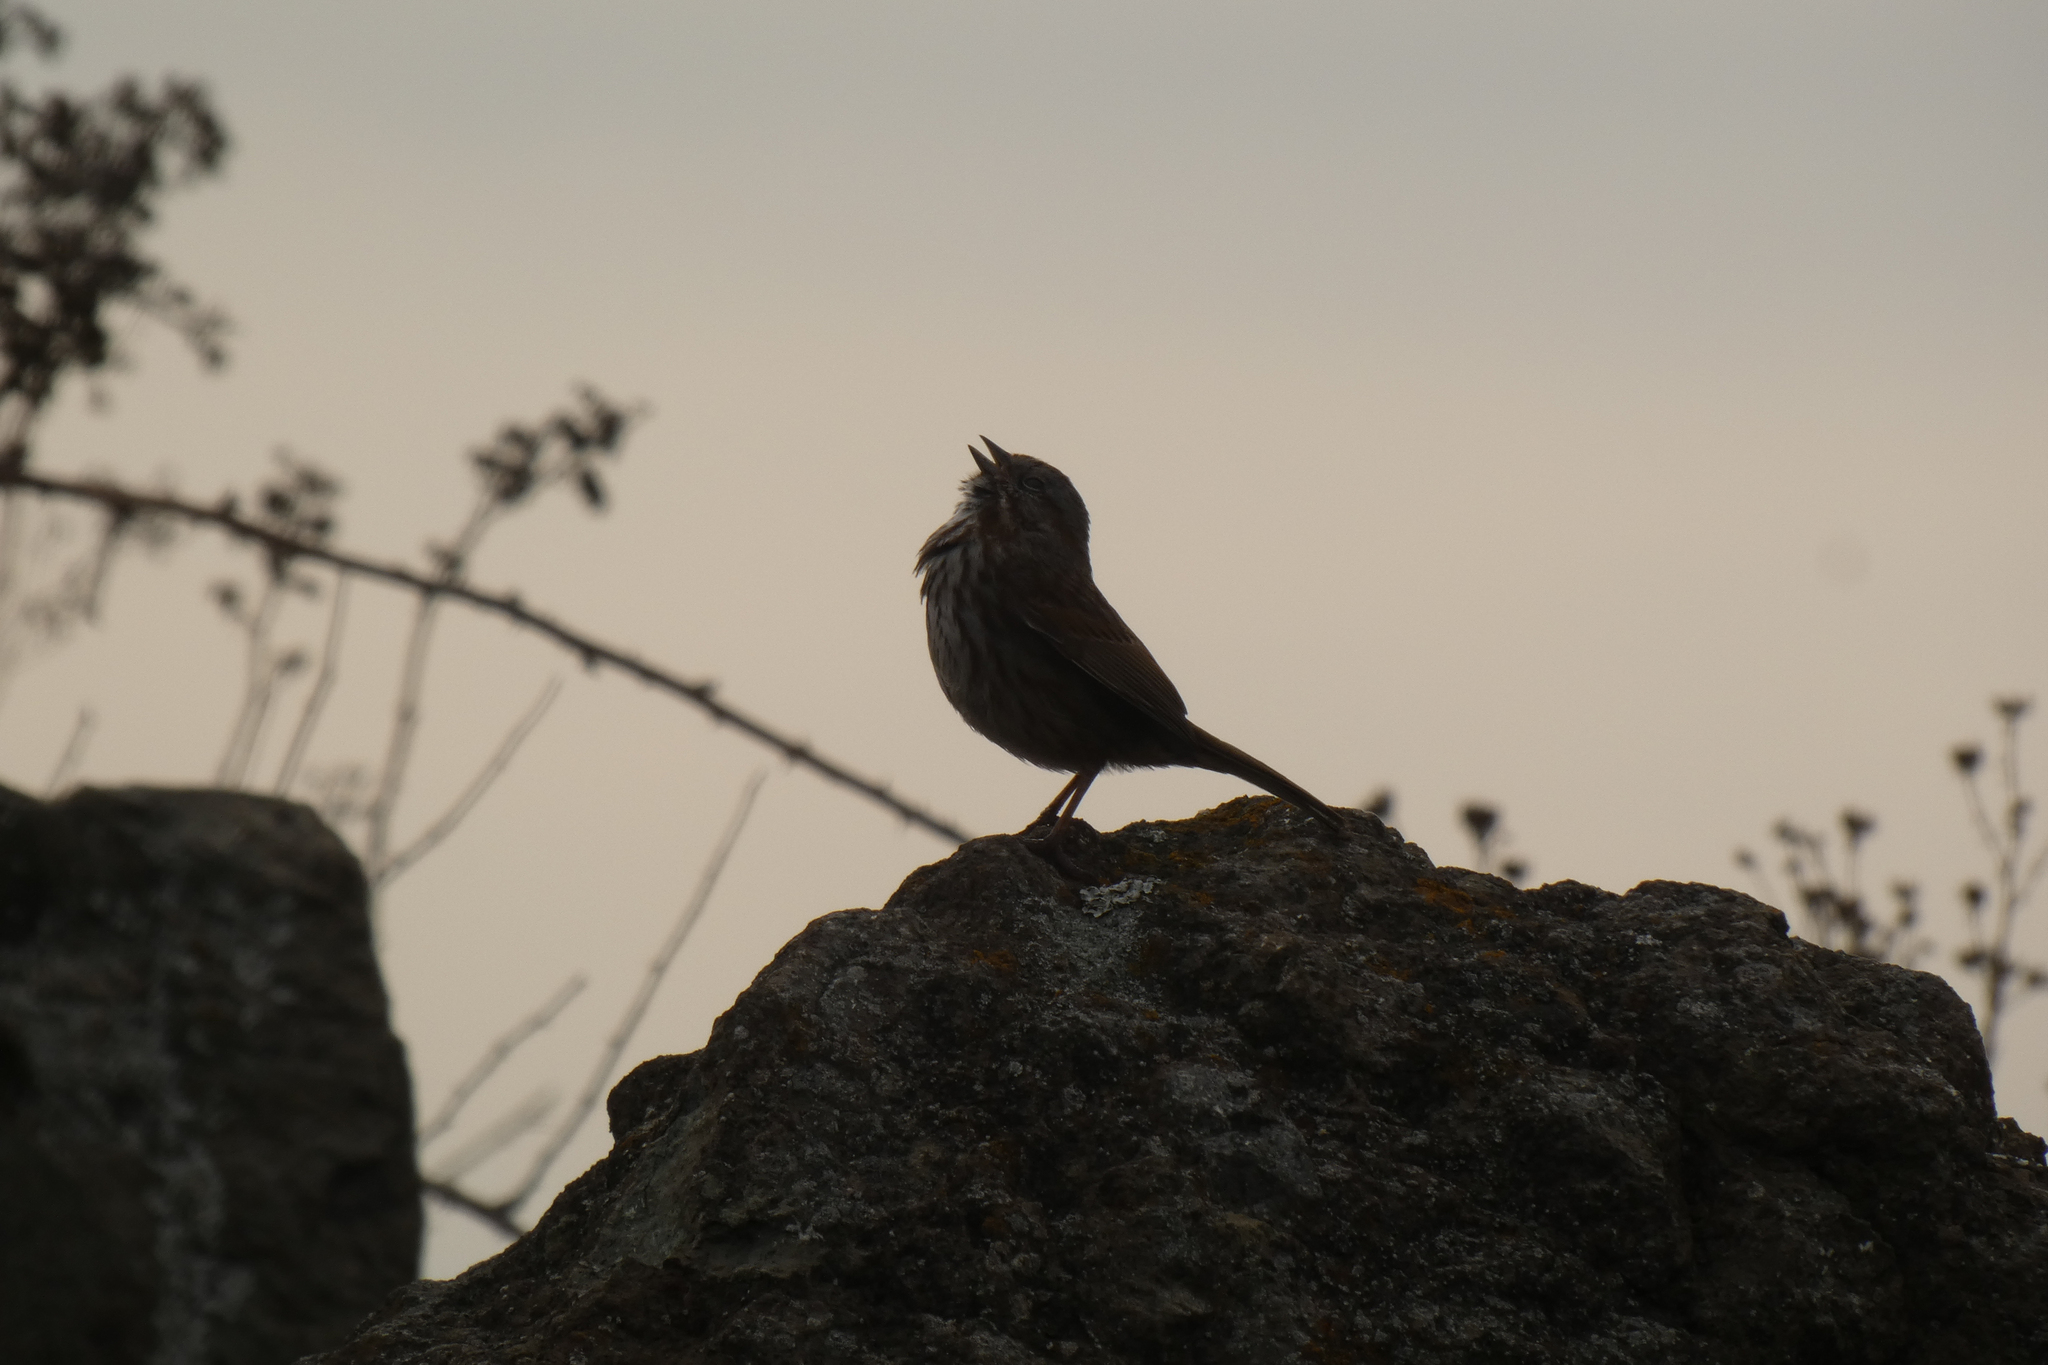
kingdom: Animalia
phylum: Chordata
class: Aves
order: Passeriformes
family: Passerellidae
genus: Melospiza
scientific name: Melospiza melodia
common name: Song sparrow
